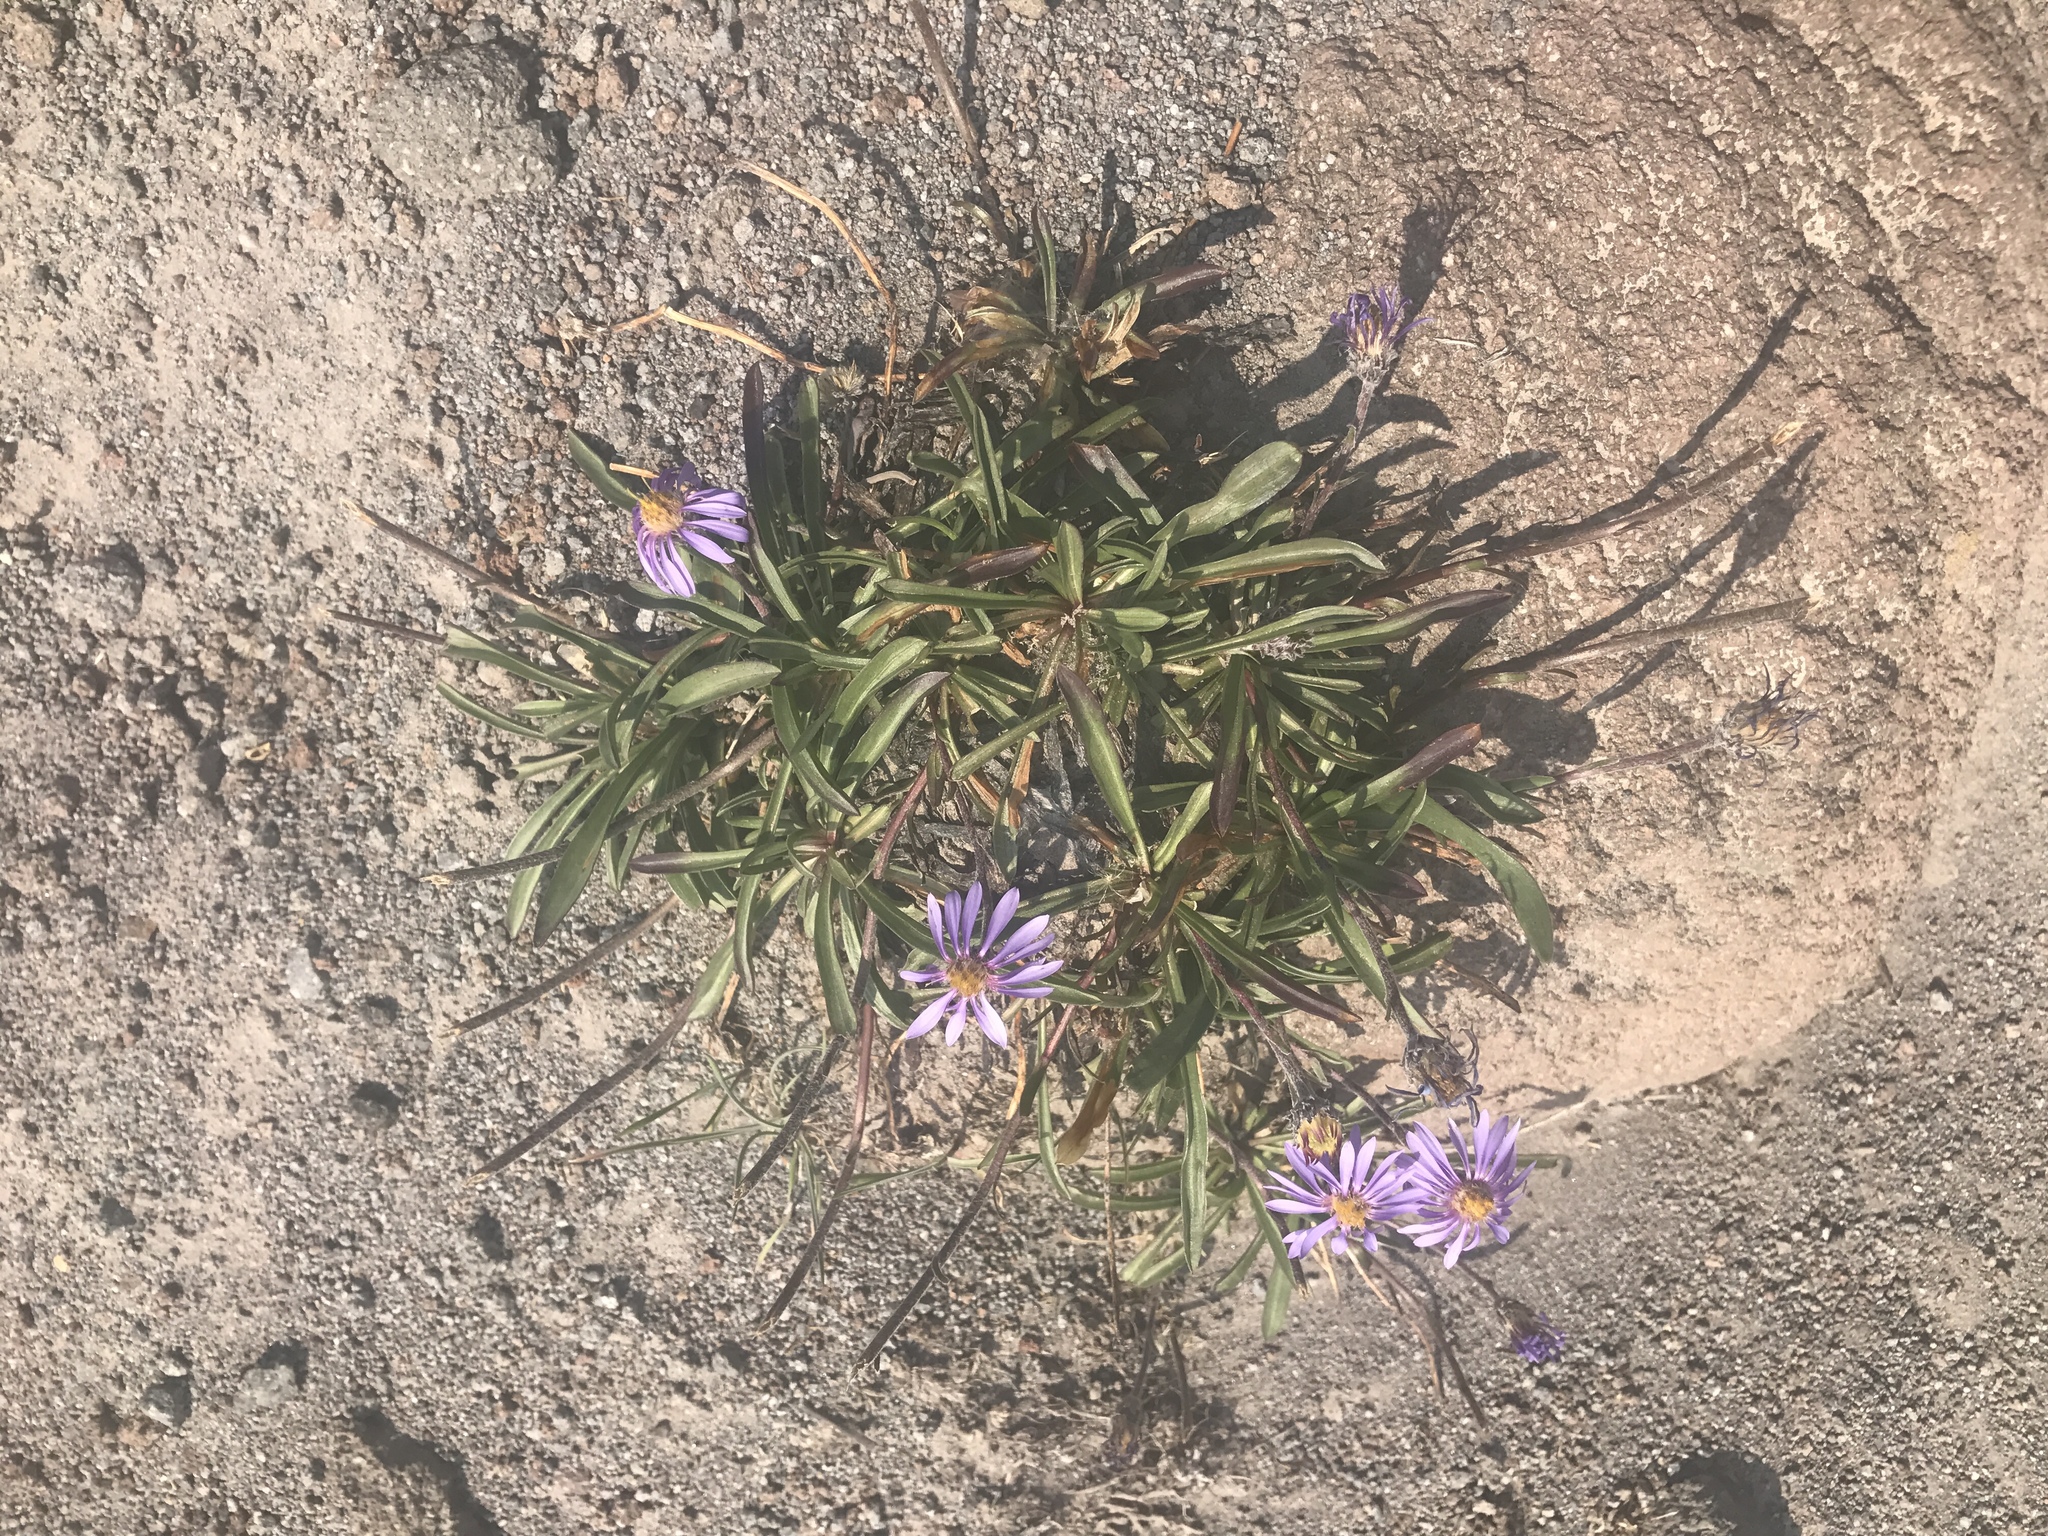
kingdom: Plantae
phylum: Tracheophyta
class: Magnoliopsida
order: Asterales
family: Asteraceae
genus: Oreostemma
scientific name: Oreostemma alpigenum
